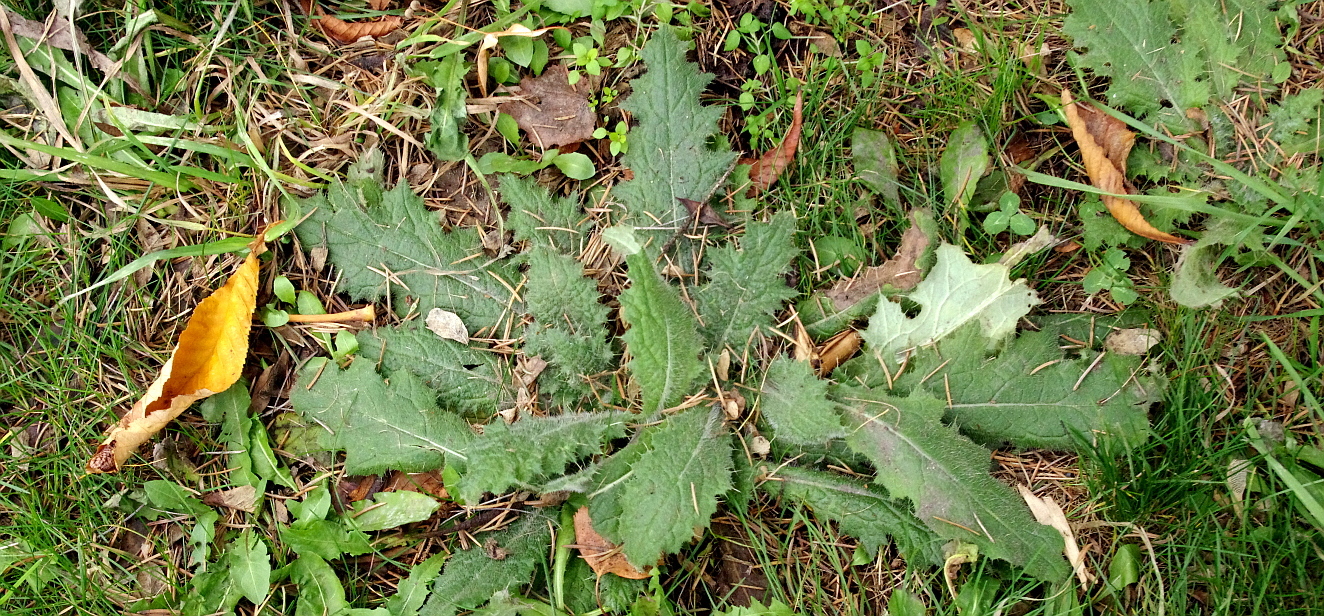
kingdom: Plantae
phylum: Tracheophyta
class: Magnoliopsida
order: Asterales
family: Asteraceae
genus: Cirsium
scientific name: Cirsium vulgare
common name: Bull thistle
